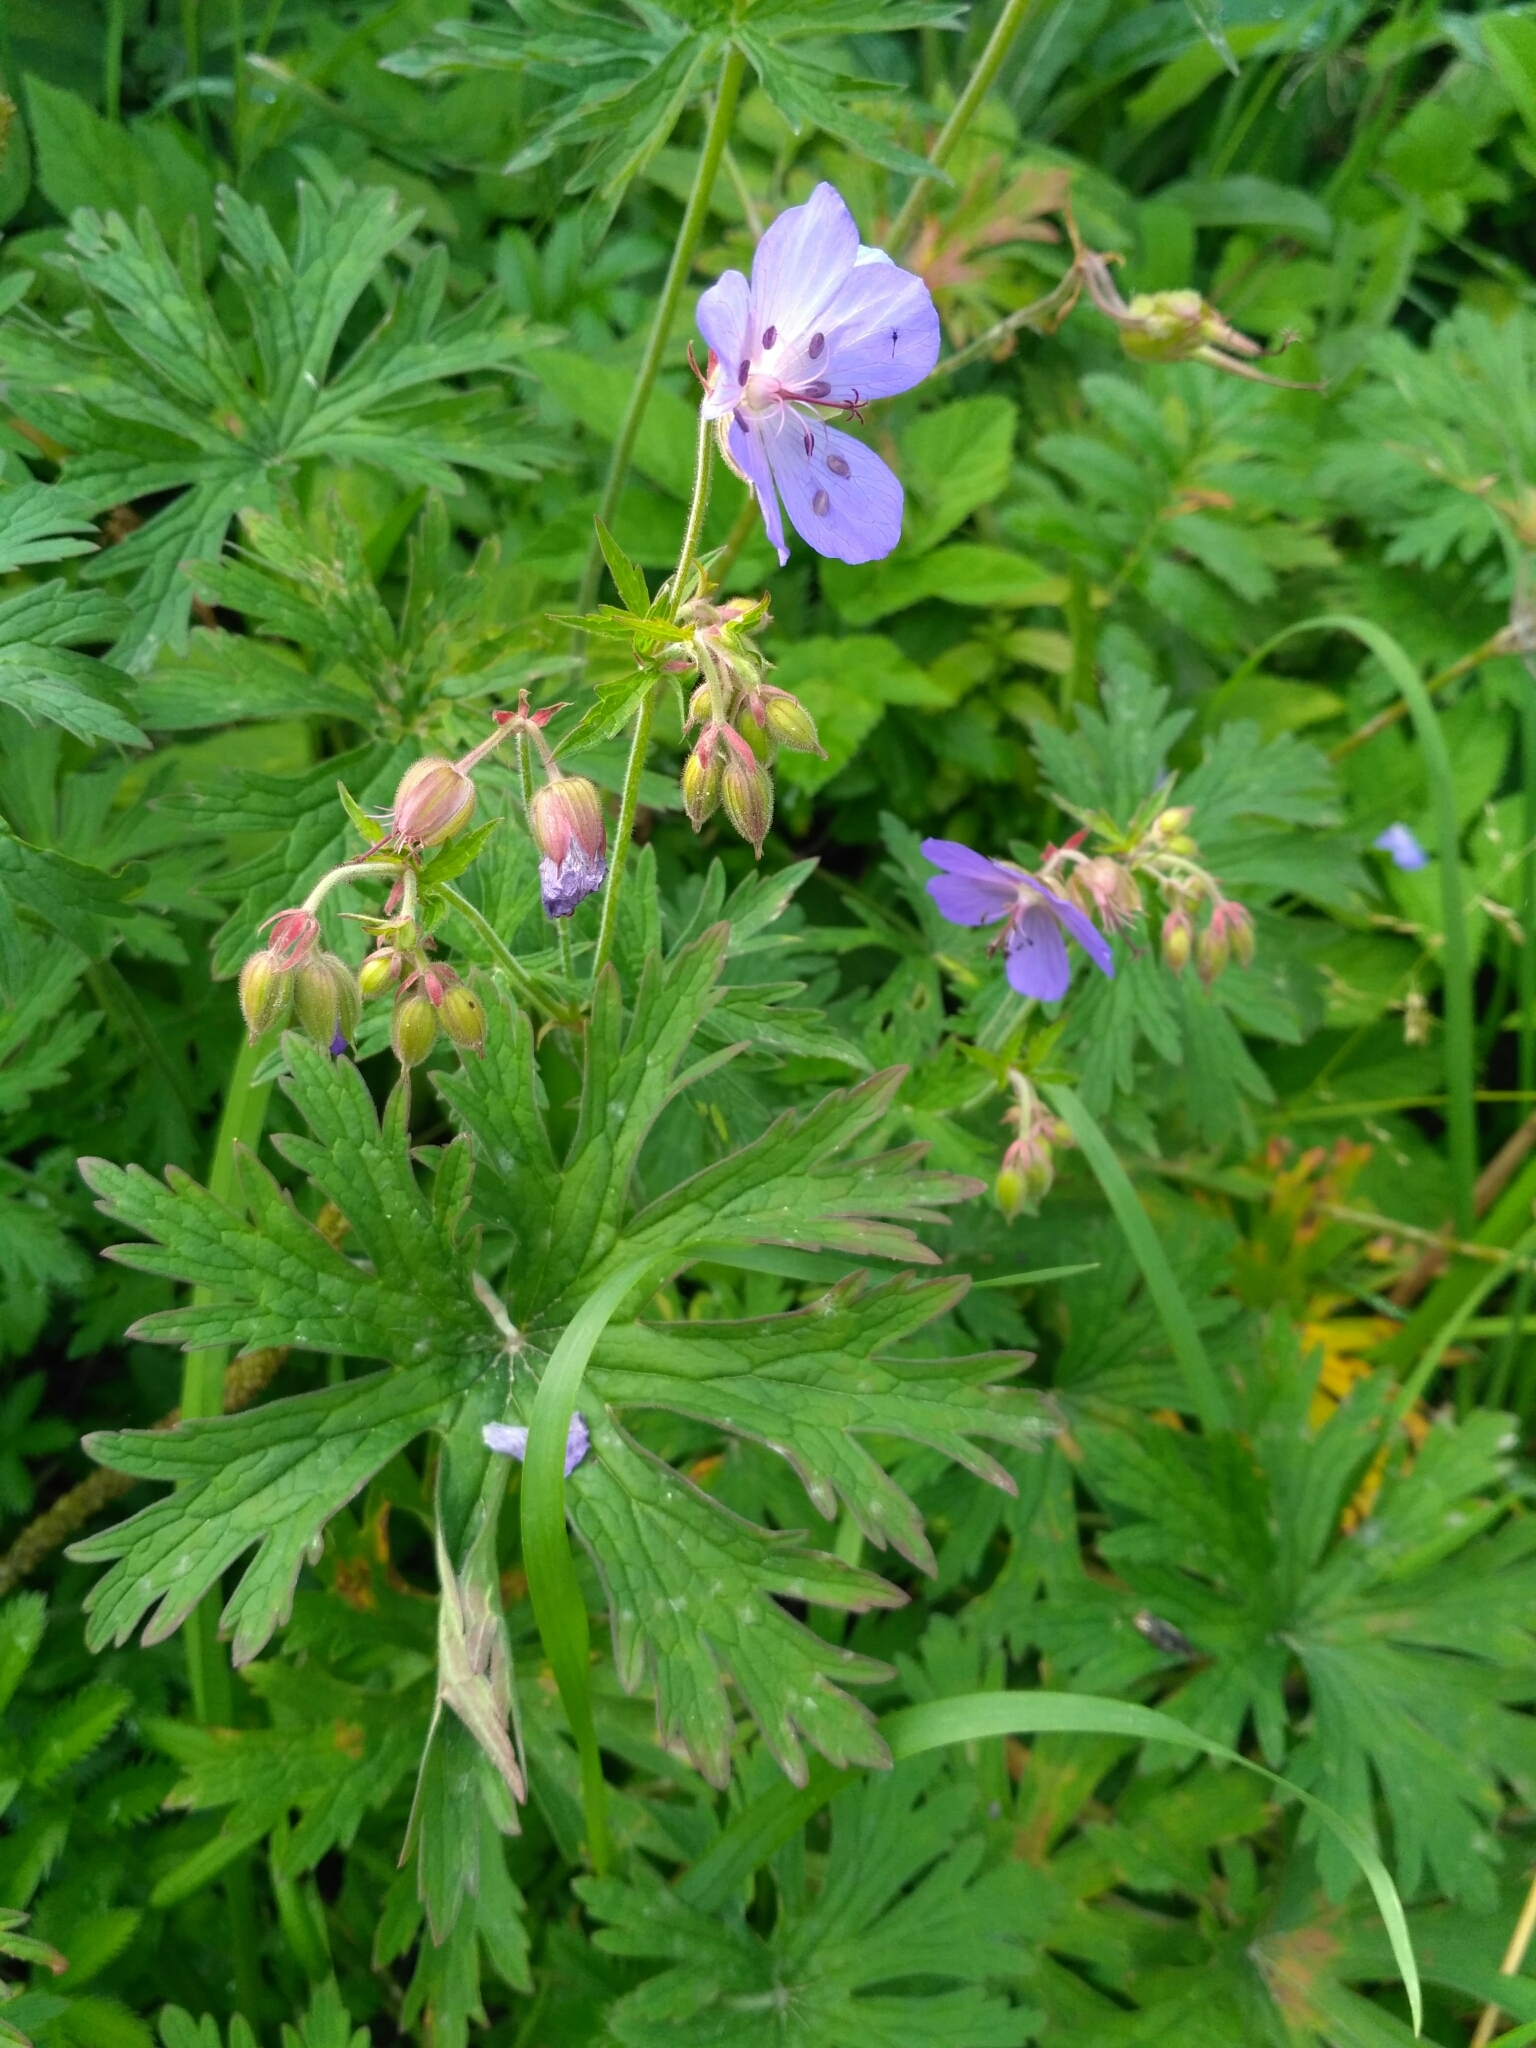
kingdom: Plantae
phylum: Tracheophyta
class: Magnoliopsida
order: Geraniales
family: Geraniaceae
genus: Geranium
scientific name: Geranium pratense
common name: Meadow crane's-bill
